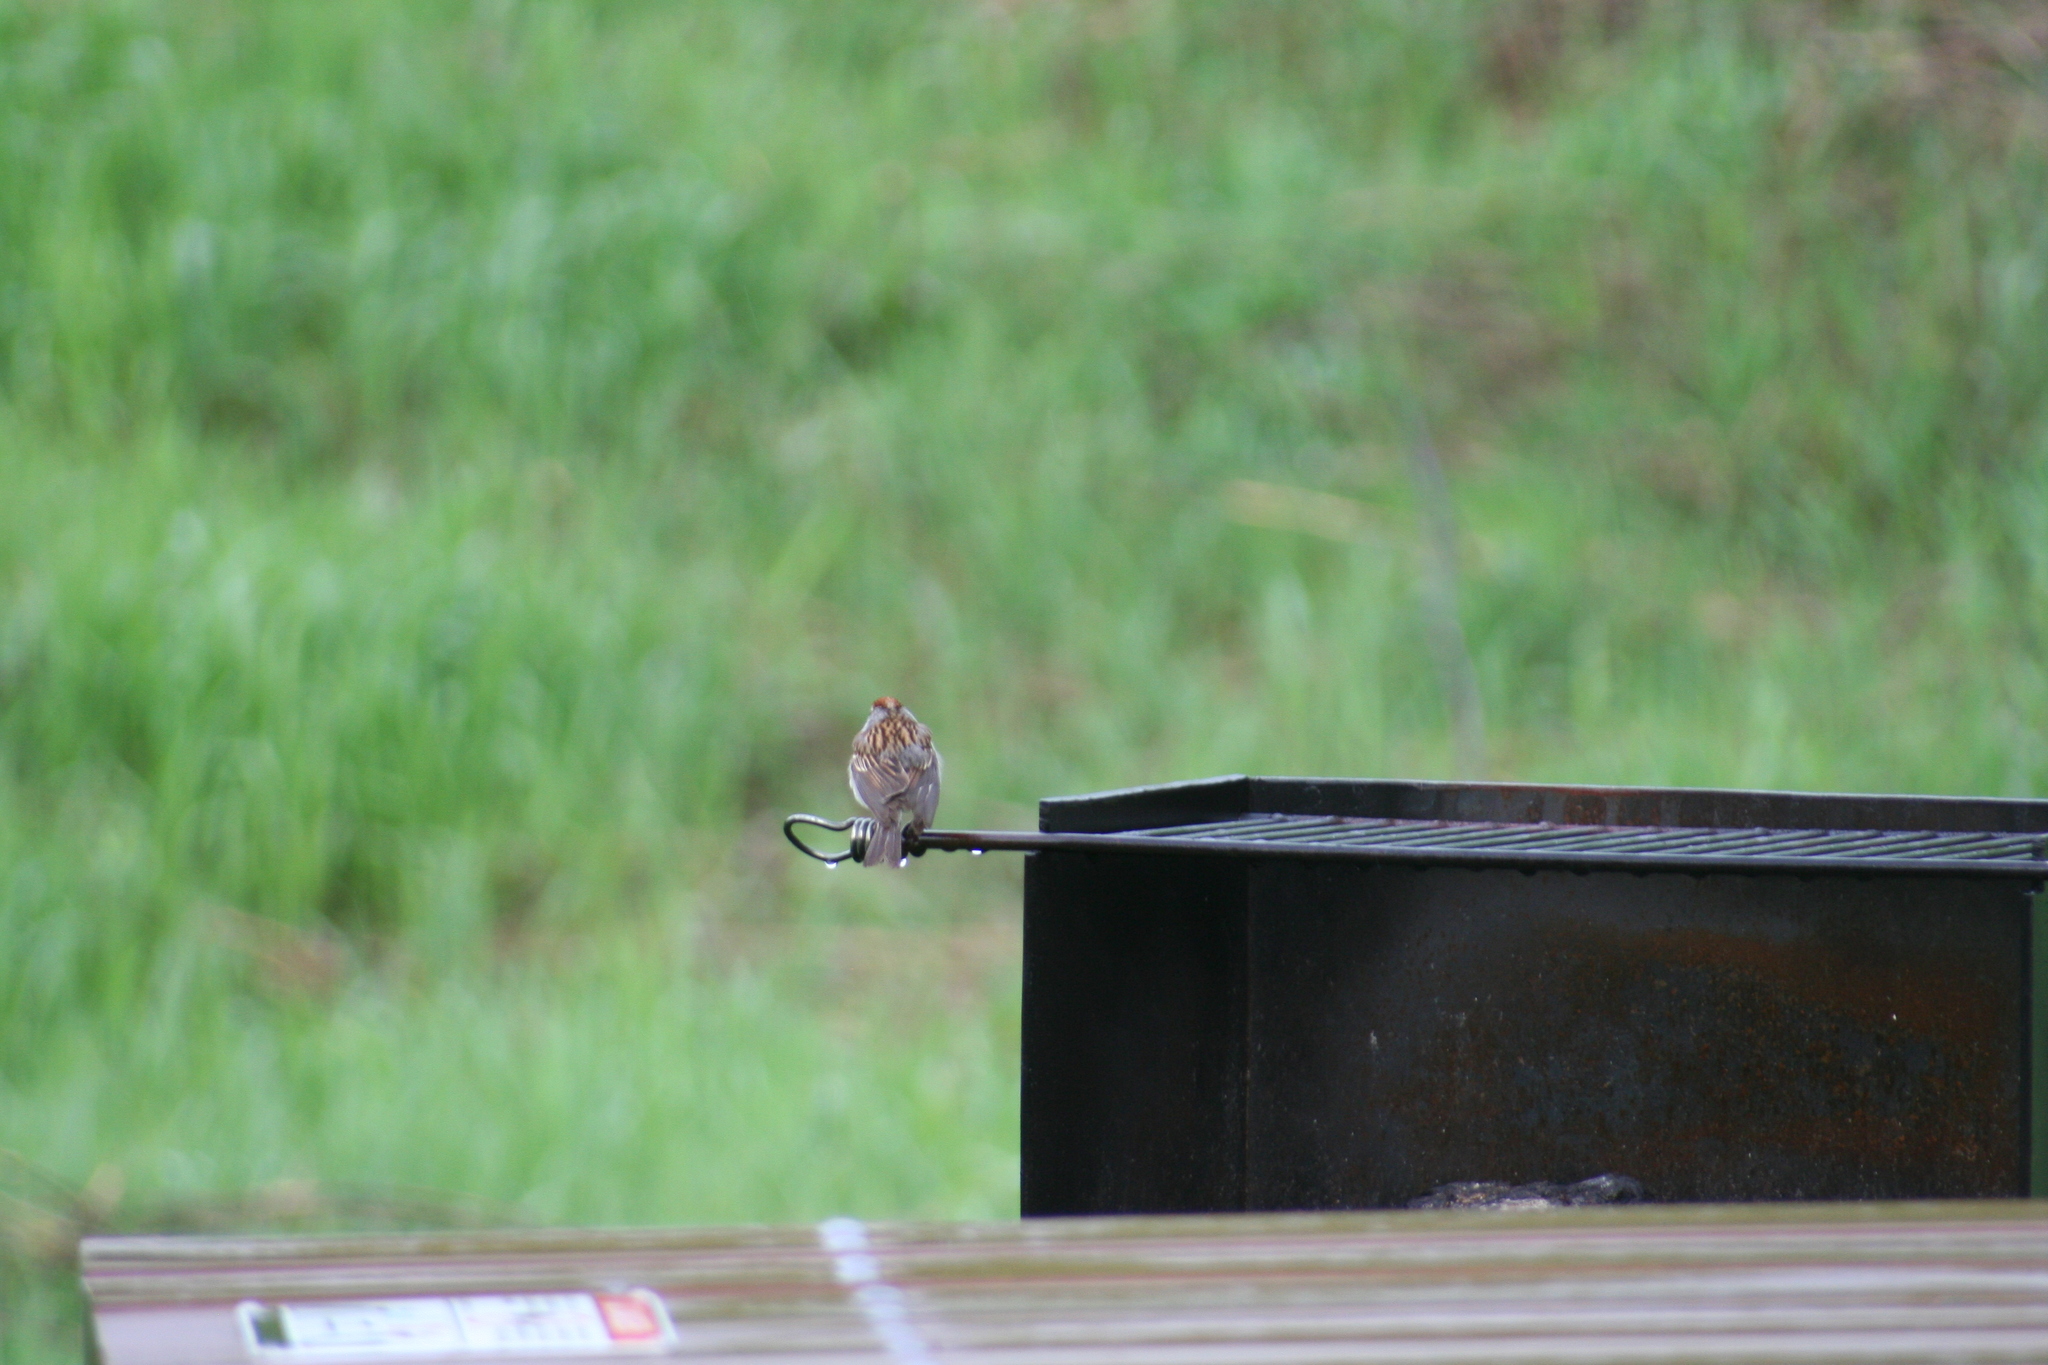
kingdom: Animalia
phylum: Chordata
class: Aves
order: Passeriformes
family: Passerellidae
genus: Spizella
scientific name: Spizella passerina
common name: Chipping sparrow
